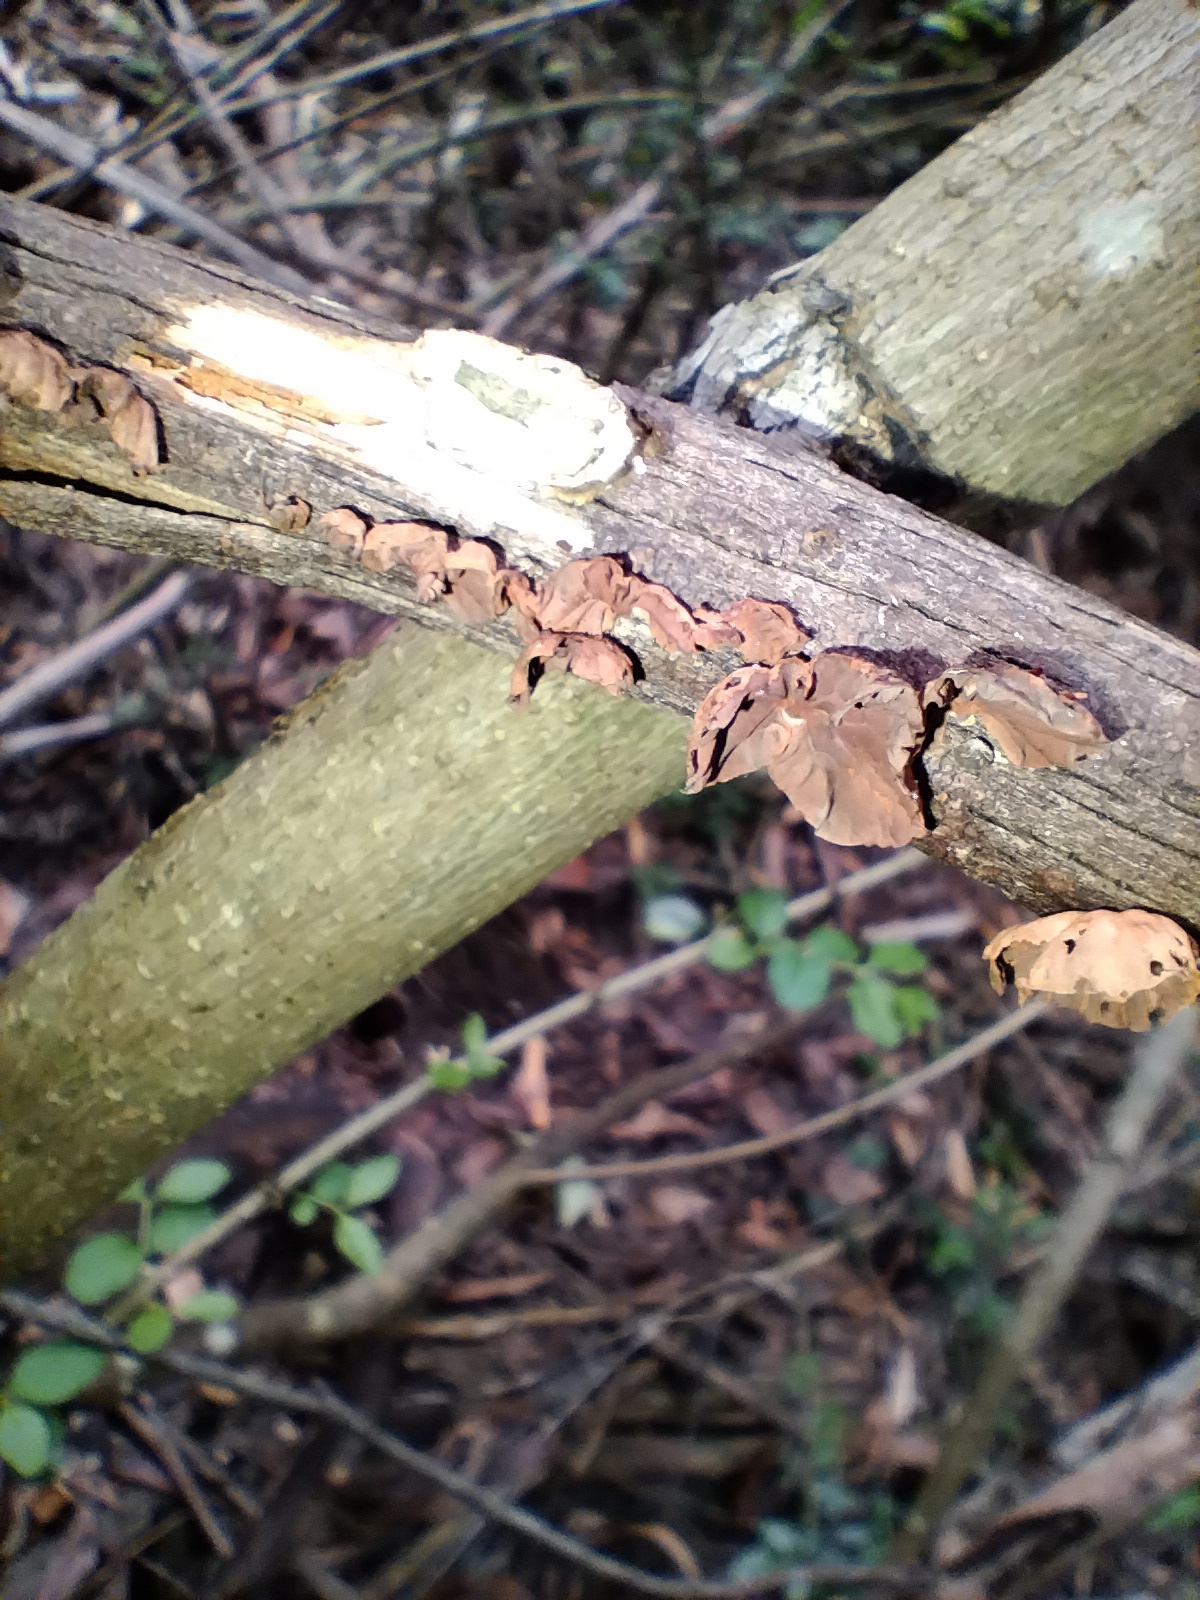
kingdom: Fungi
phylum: Basidiomycota
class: Agaricomycetes
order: Agaricales
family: Omphalotaceae
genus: Anthracophyllum
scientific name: Anthracophyllum archeri
